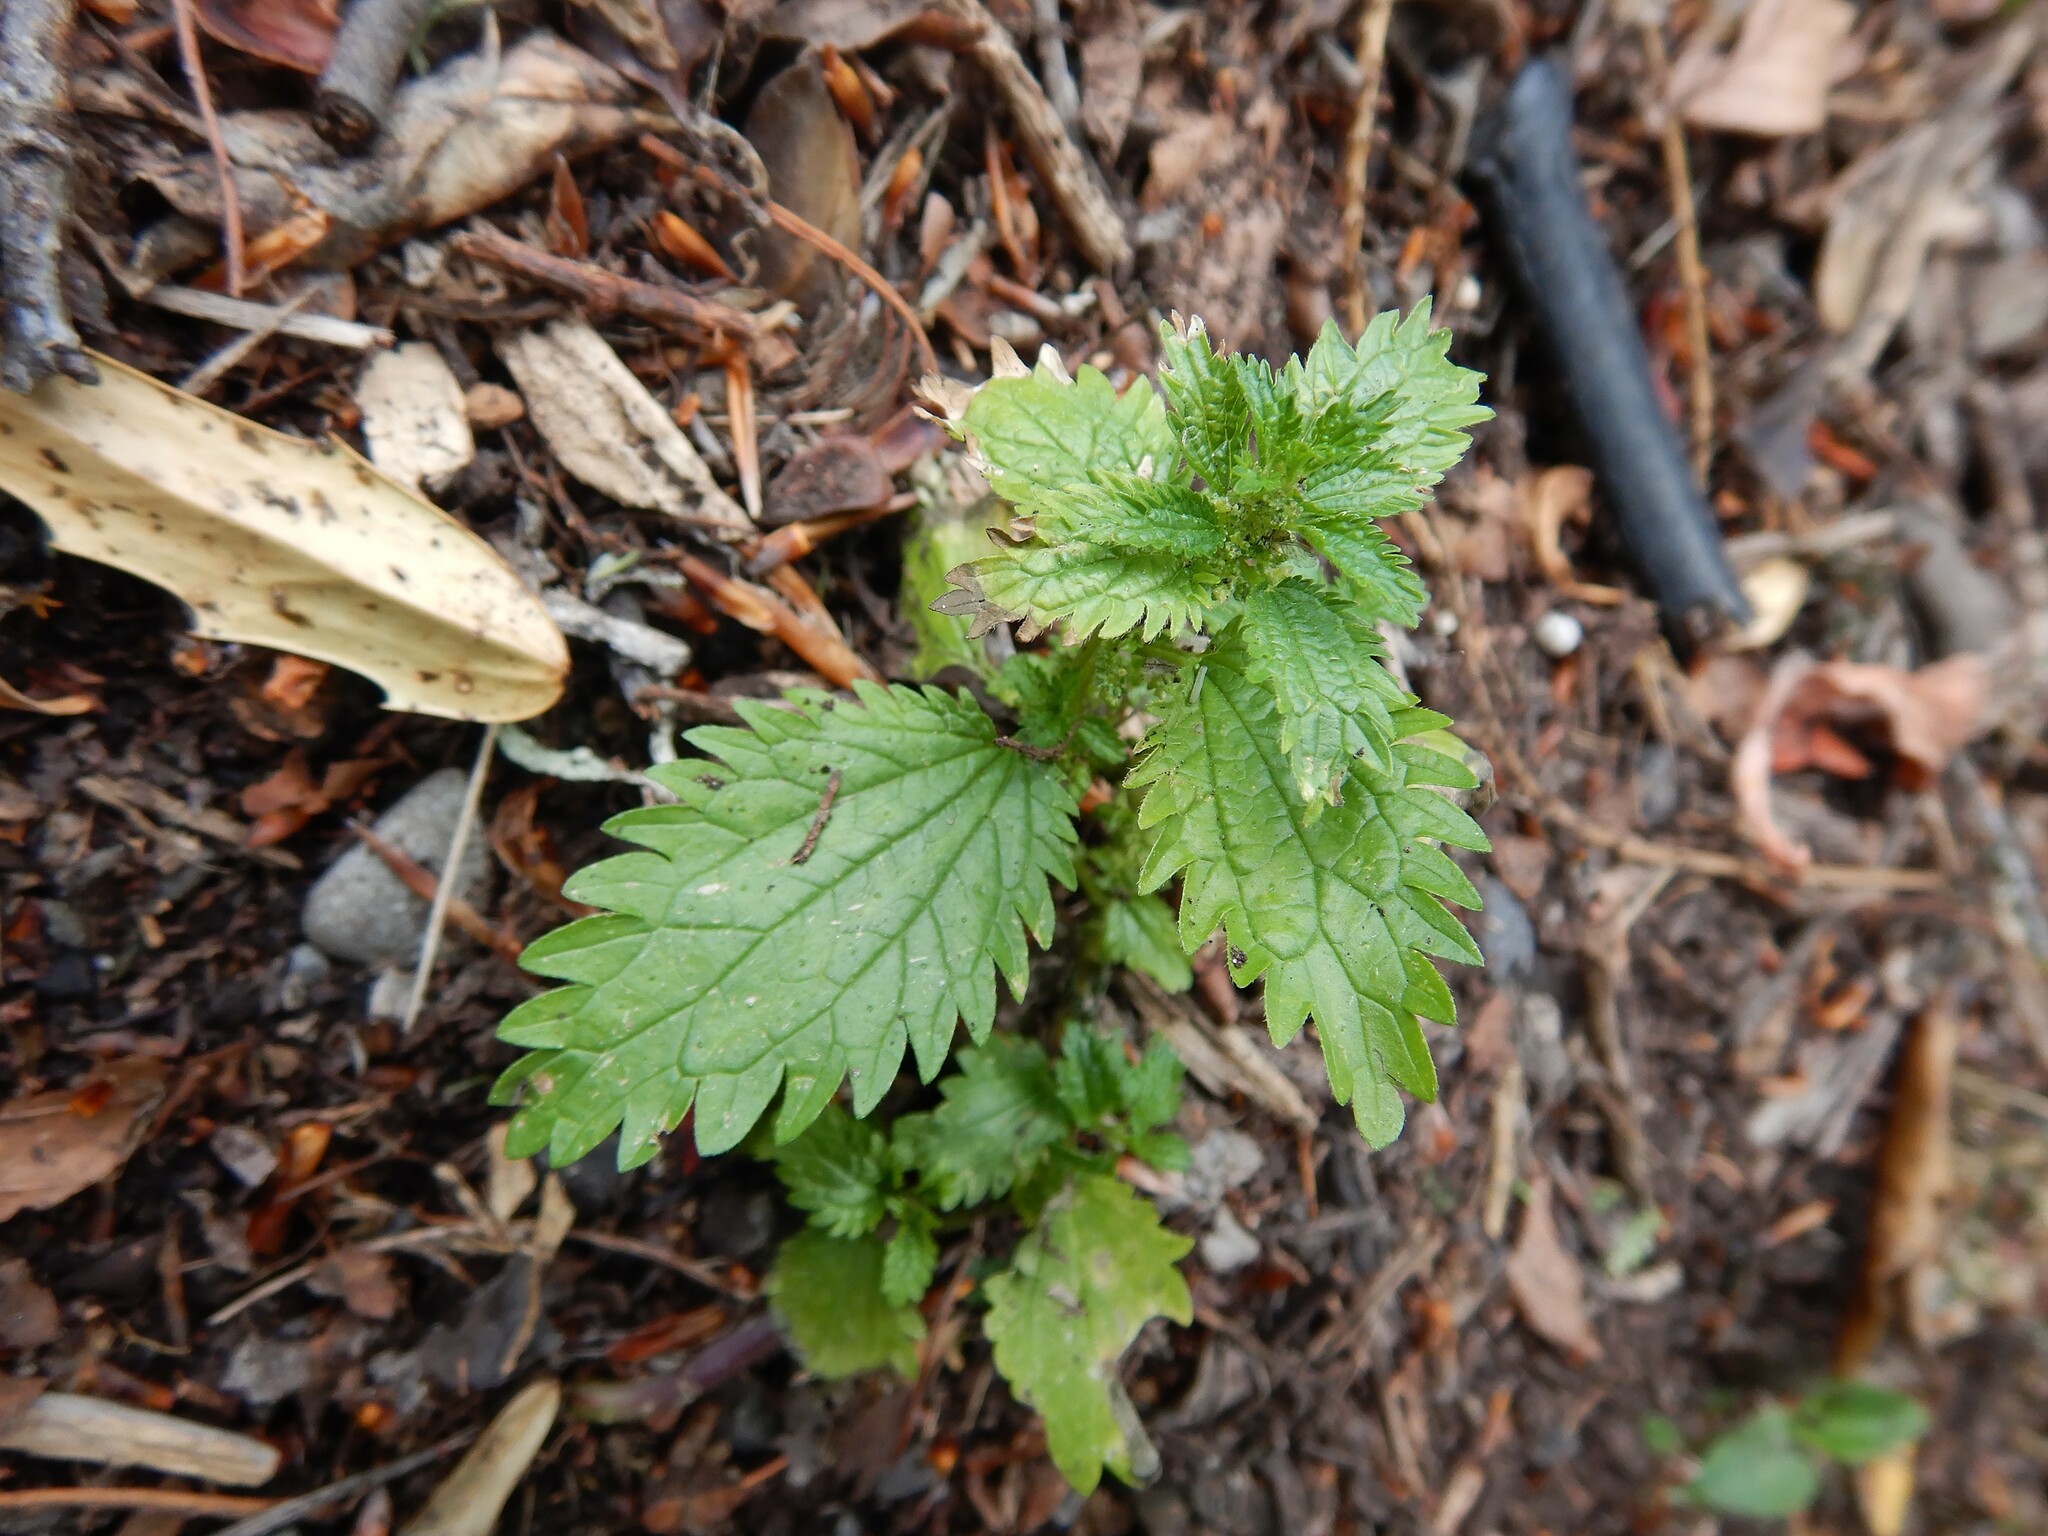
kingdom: Plantae
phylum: Tracheophyta
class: Magnoliopsida
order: Rosales
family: Urticaceae
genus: Urtica
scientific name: Urtica urens
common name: Dwarf nettle
